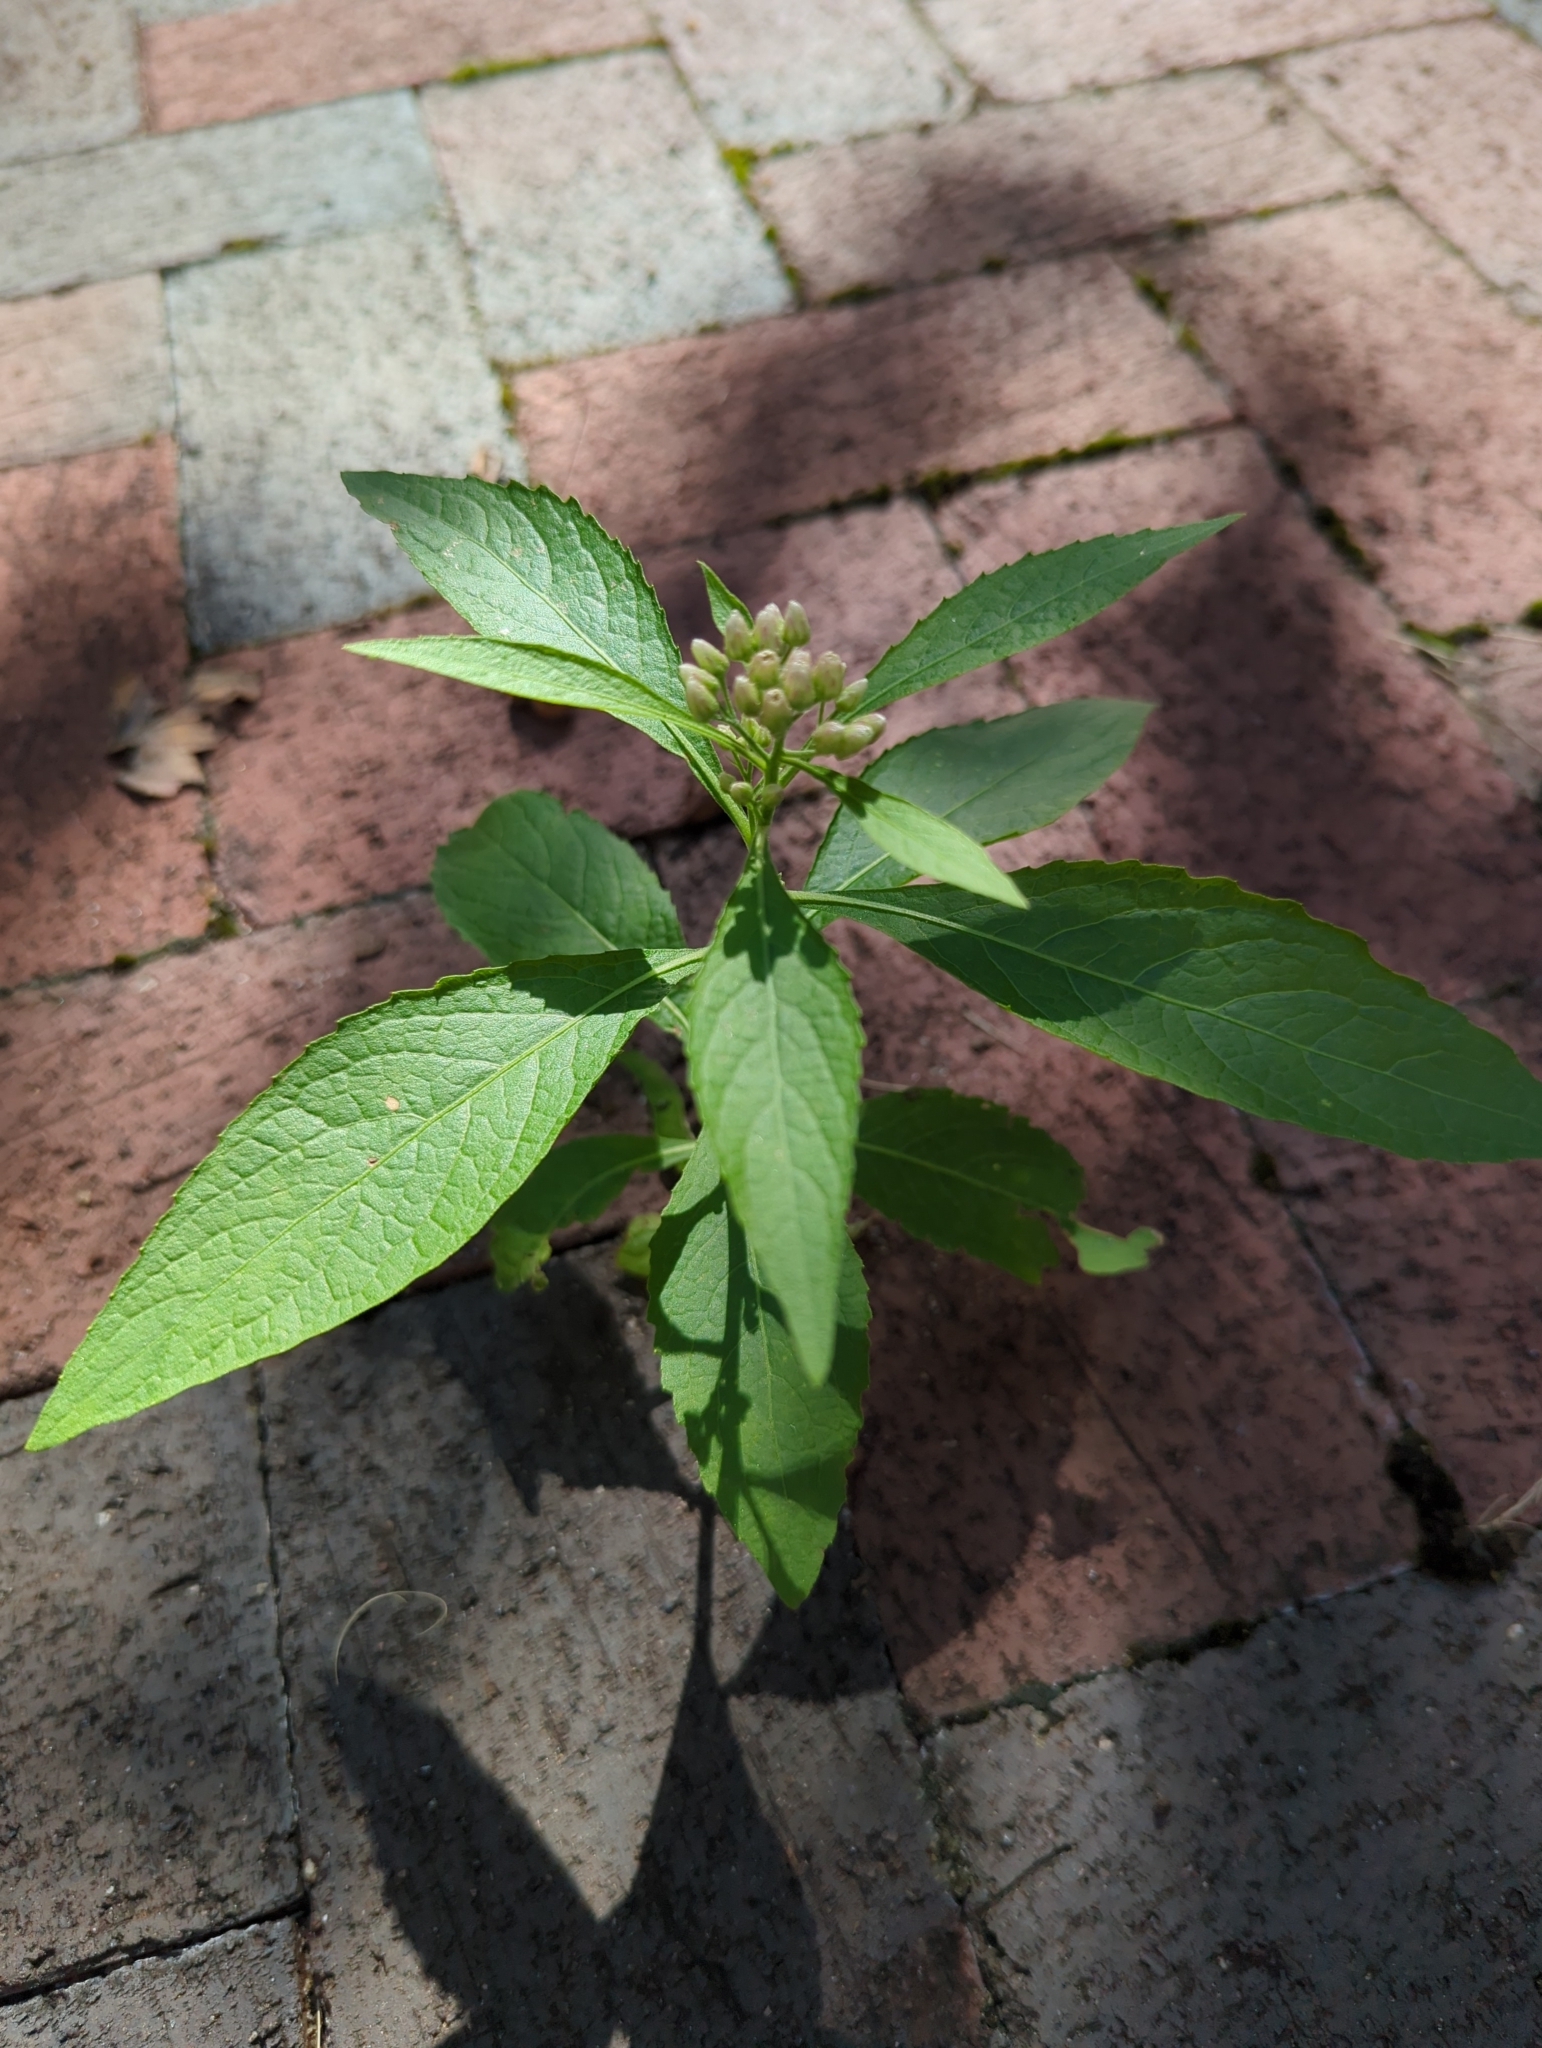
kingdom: Plantae
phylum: Tracheophyta
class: Magnoliopsida
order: Asterales
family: Asteraceae
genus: Pluchea
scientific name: Pluchea camphorata
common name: Camphor pluchea
